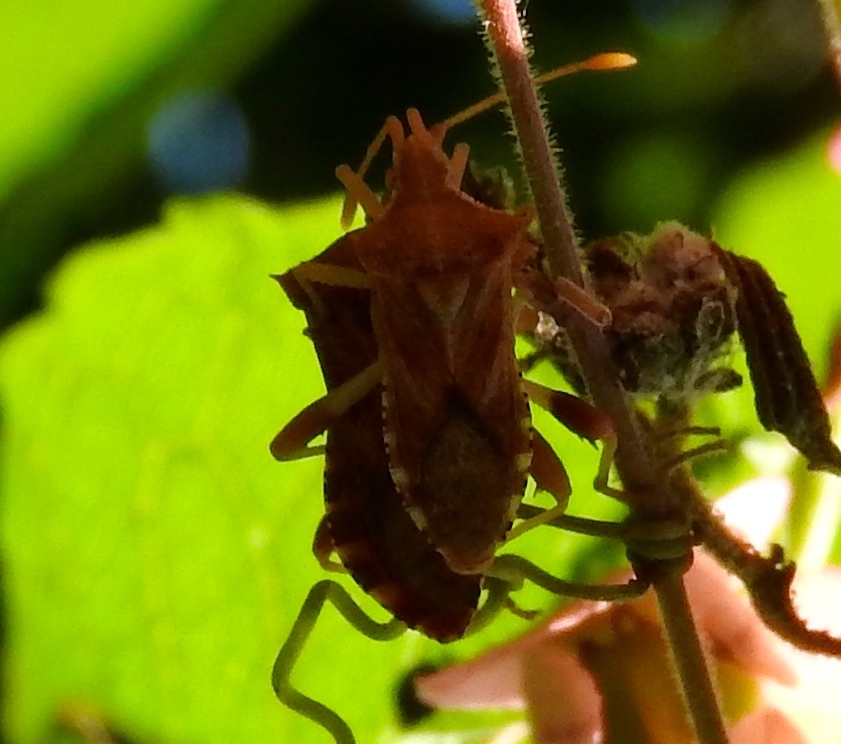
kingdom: Animalia
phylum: Arthropoda
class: Insecta
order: Hemiptera
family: Coreidae
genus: Dalmatomammurius
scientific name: Dalmatomammurius heissi
